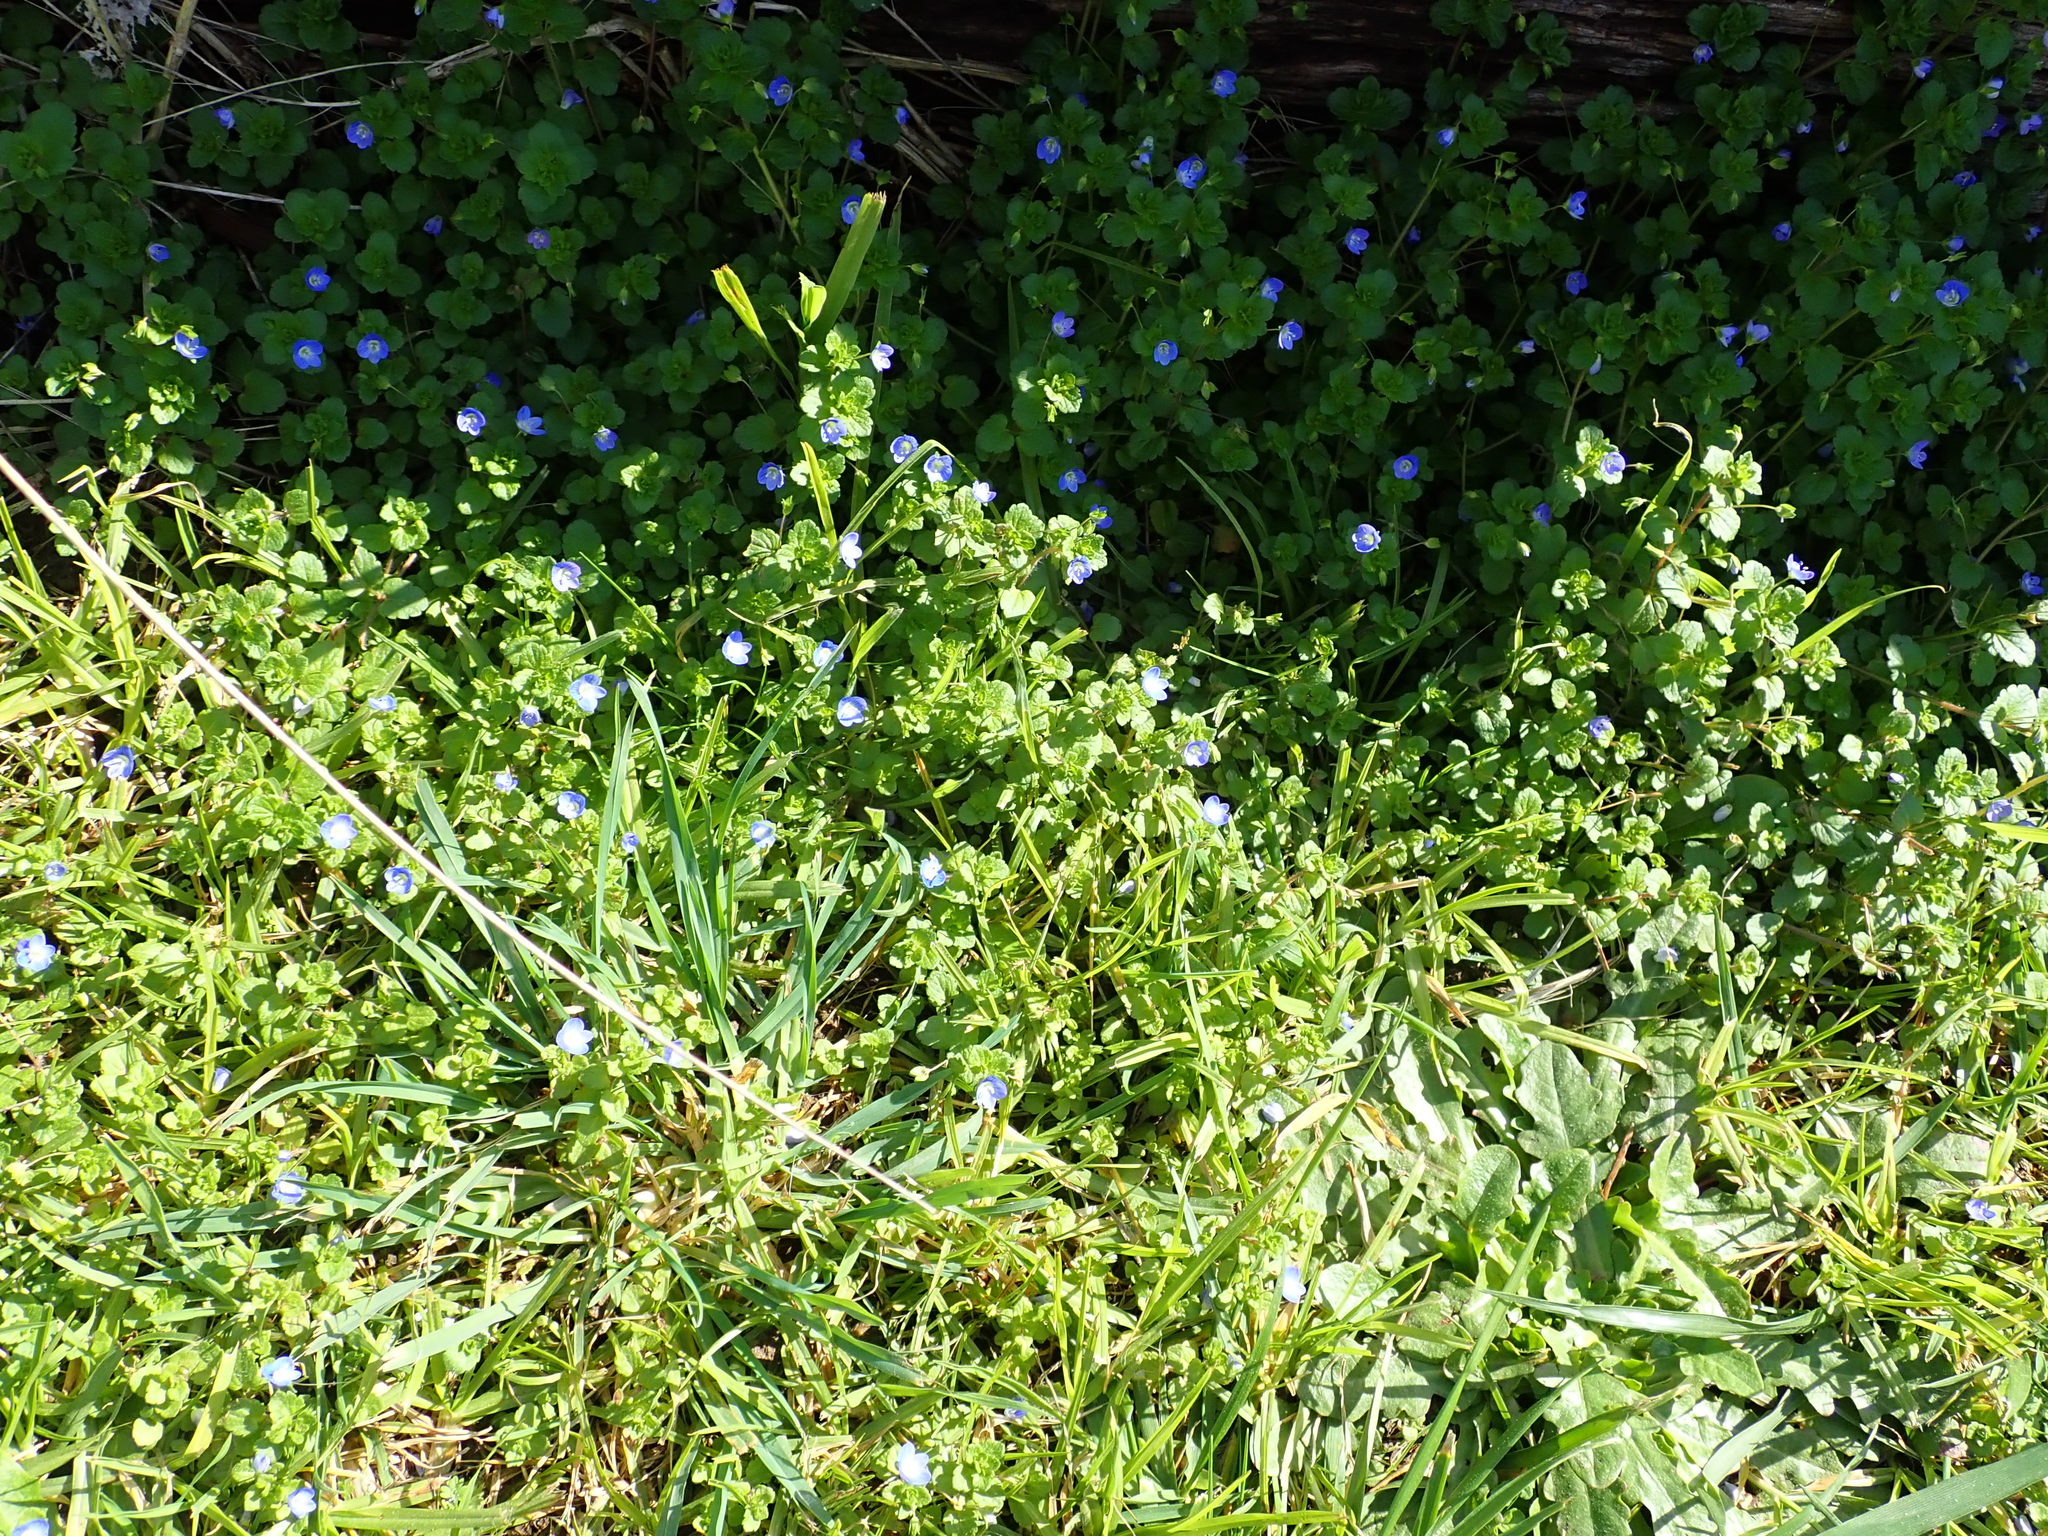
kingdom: Plantae
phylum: Tracheophyta
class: Magnoliopsida
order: Lamiales
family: Plantaginaceae
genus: Veronica
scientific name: Veronica persica
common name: Common field-speedwell
